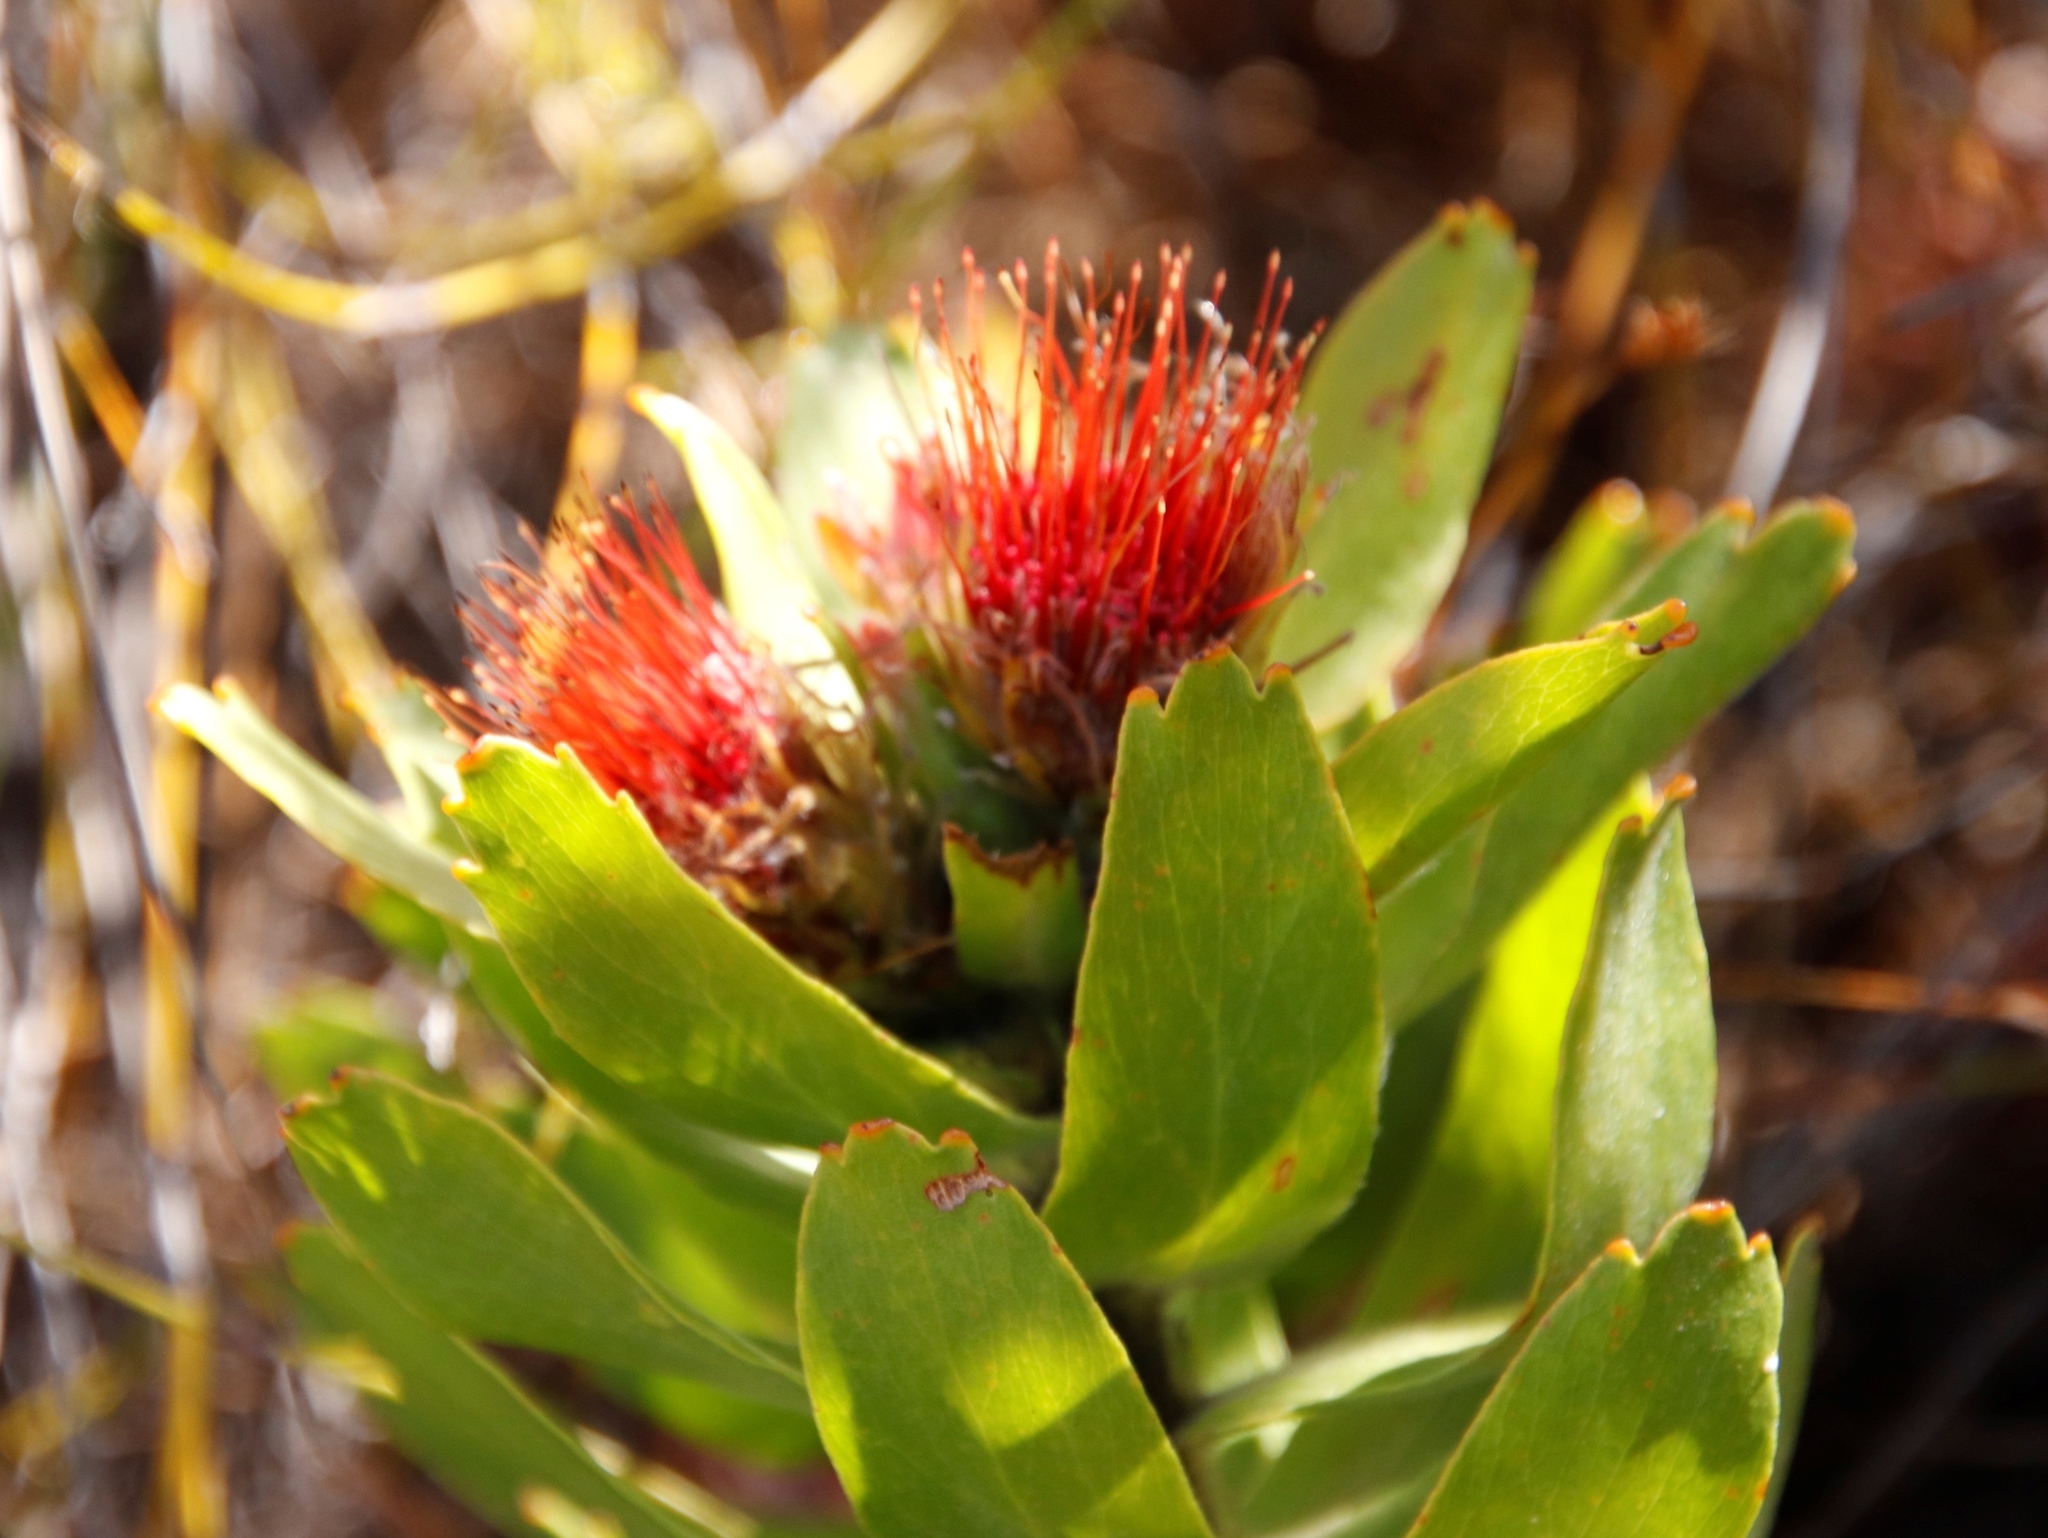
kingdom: Plantae
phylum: Tracheophyta
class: Magnoliopsida
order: Proteales
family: Proteaceae
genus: Leucospermum
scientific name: Leucospermum oleifolium
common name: Matches
